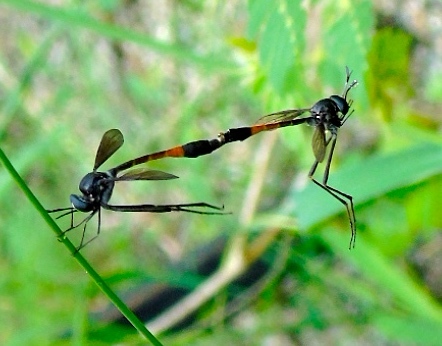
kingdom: Animalia
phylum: Arthropoda
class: Insecta
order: Diptera
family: Bombyliidae
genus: Systropus
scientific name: Systropus
